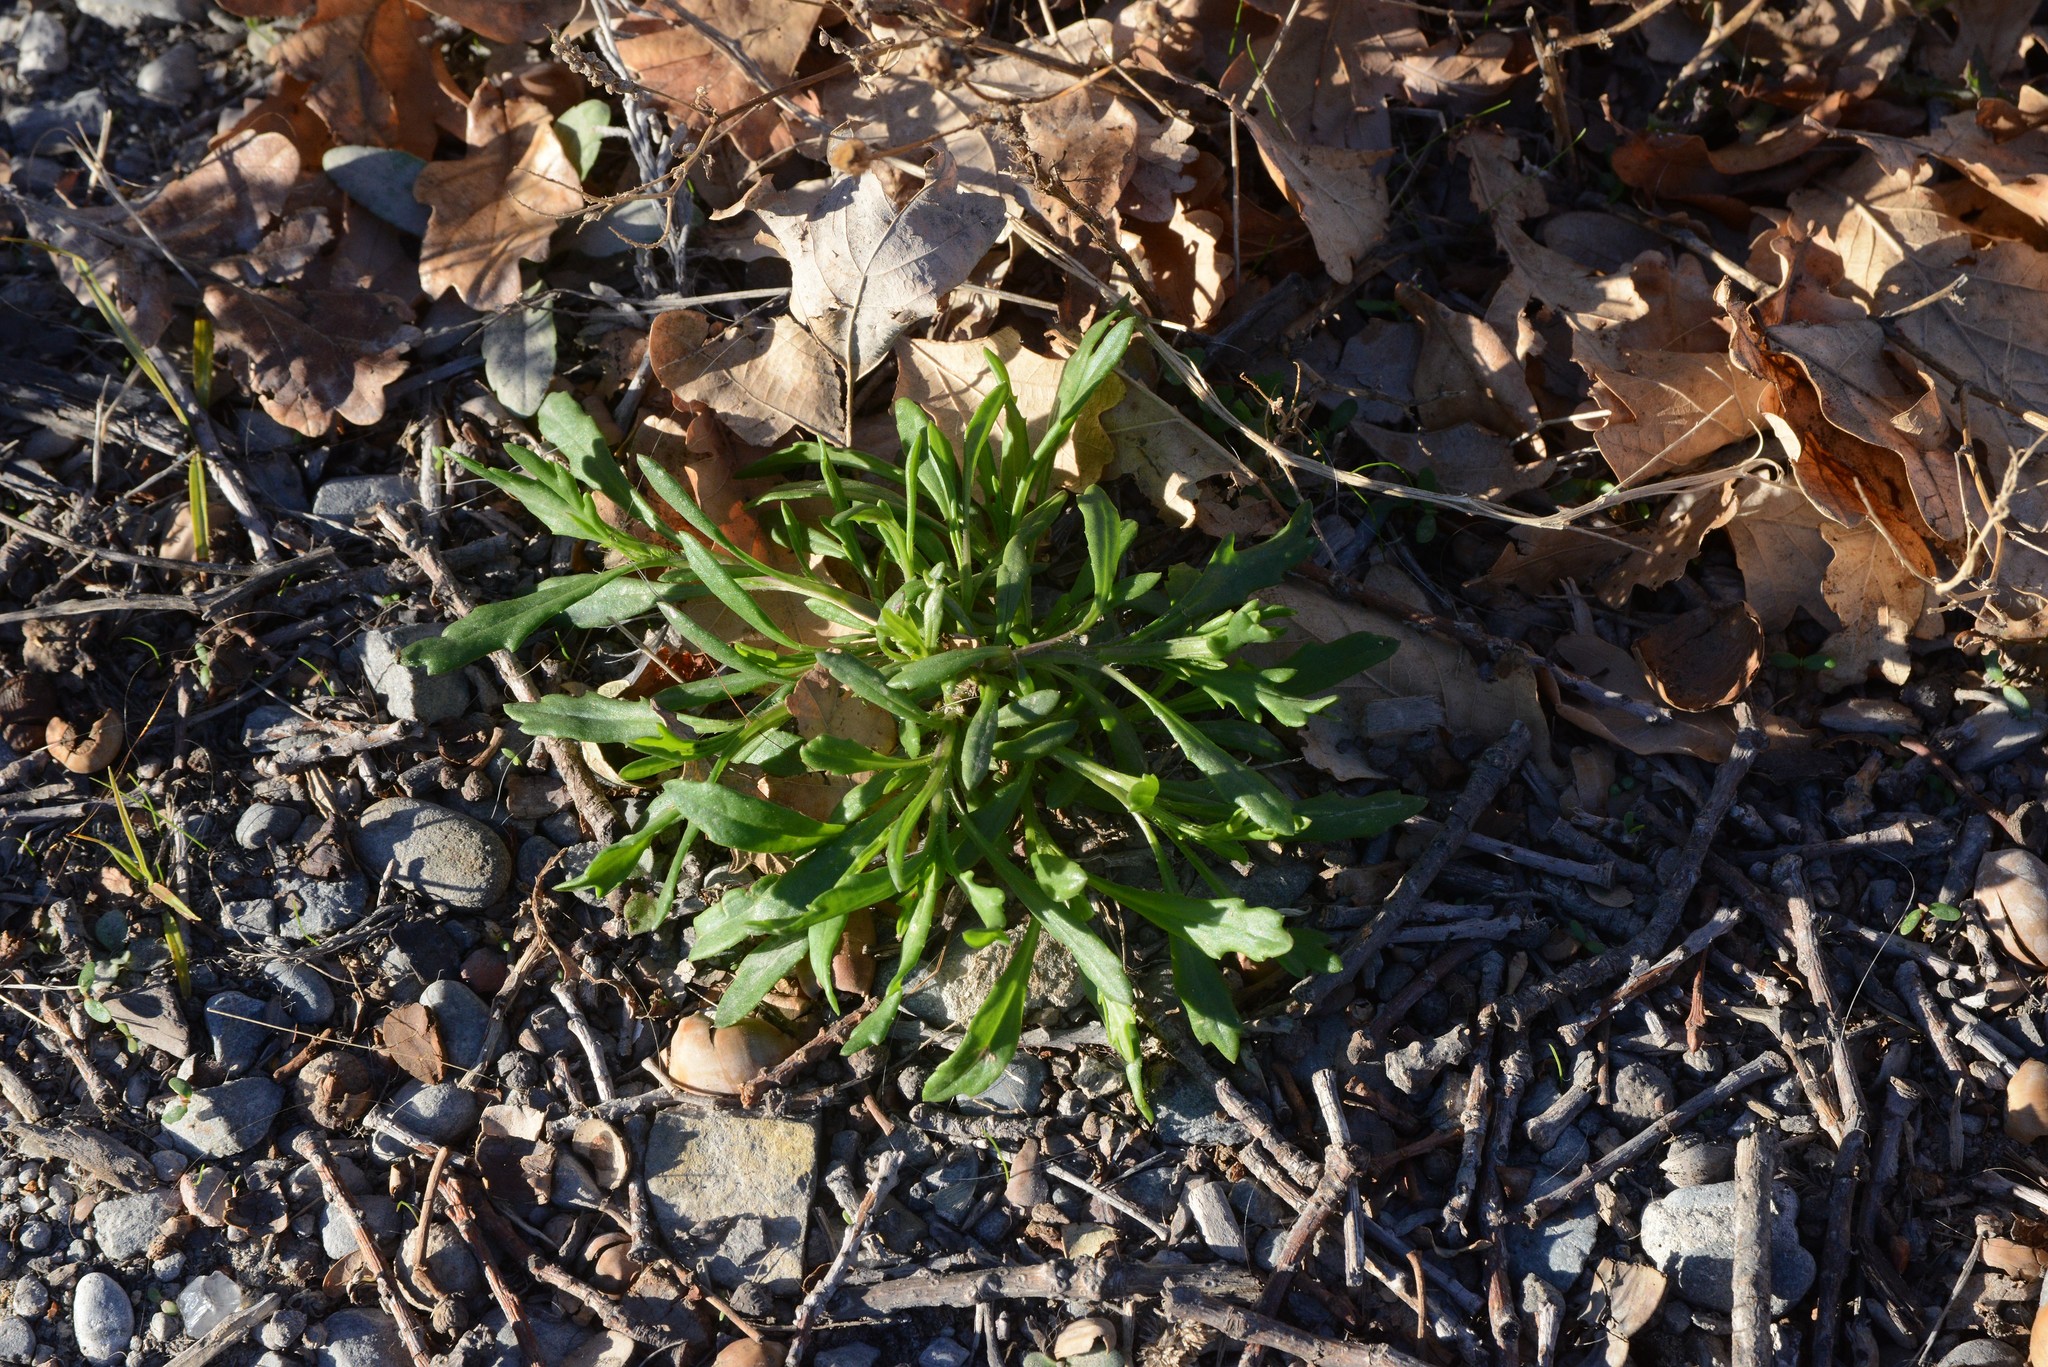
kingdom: Plantae
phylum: Tracheophyta
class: Magnoliopsida
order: Asterales
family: Asteraceae
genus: Senecio
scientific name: Senecio skirrhodon
